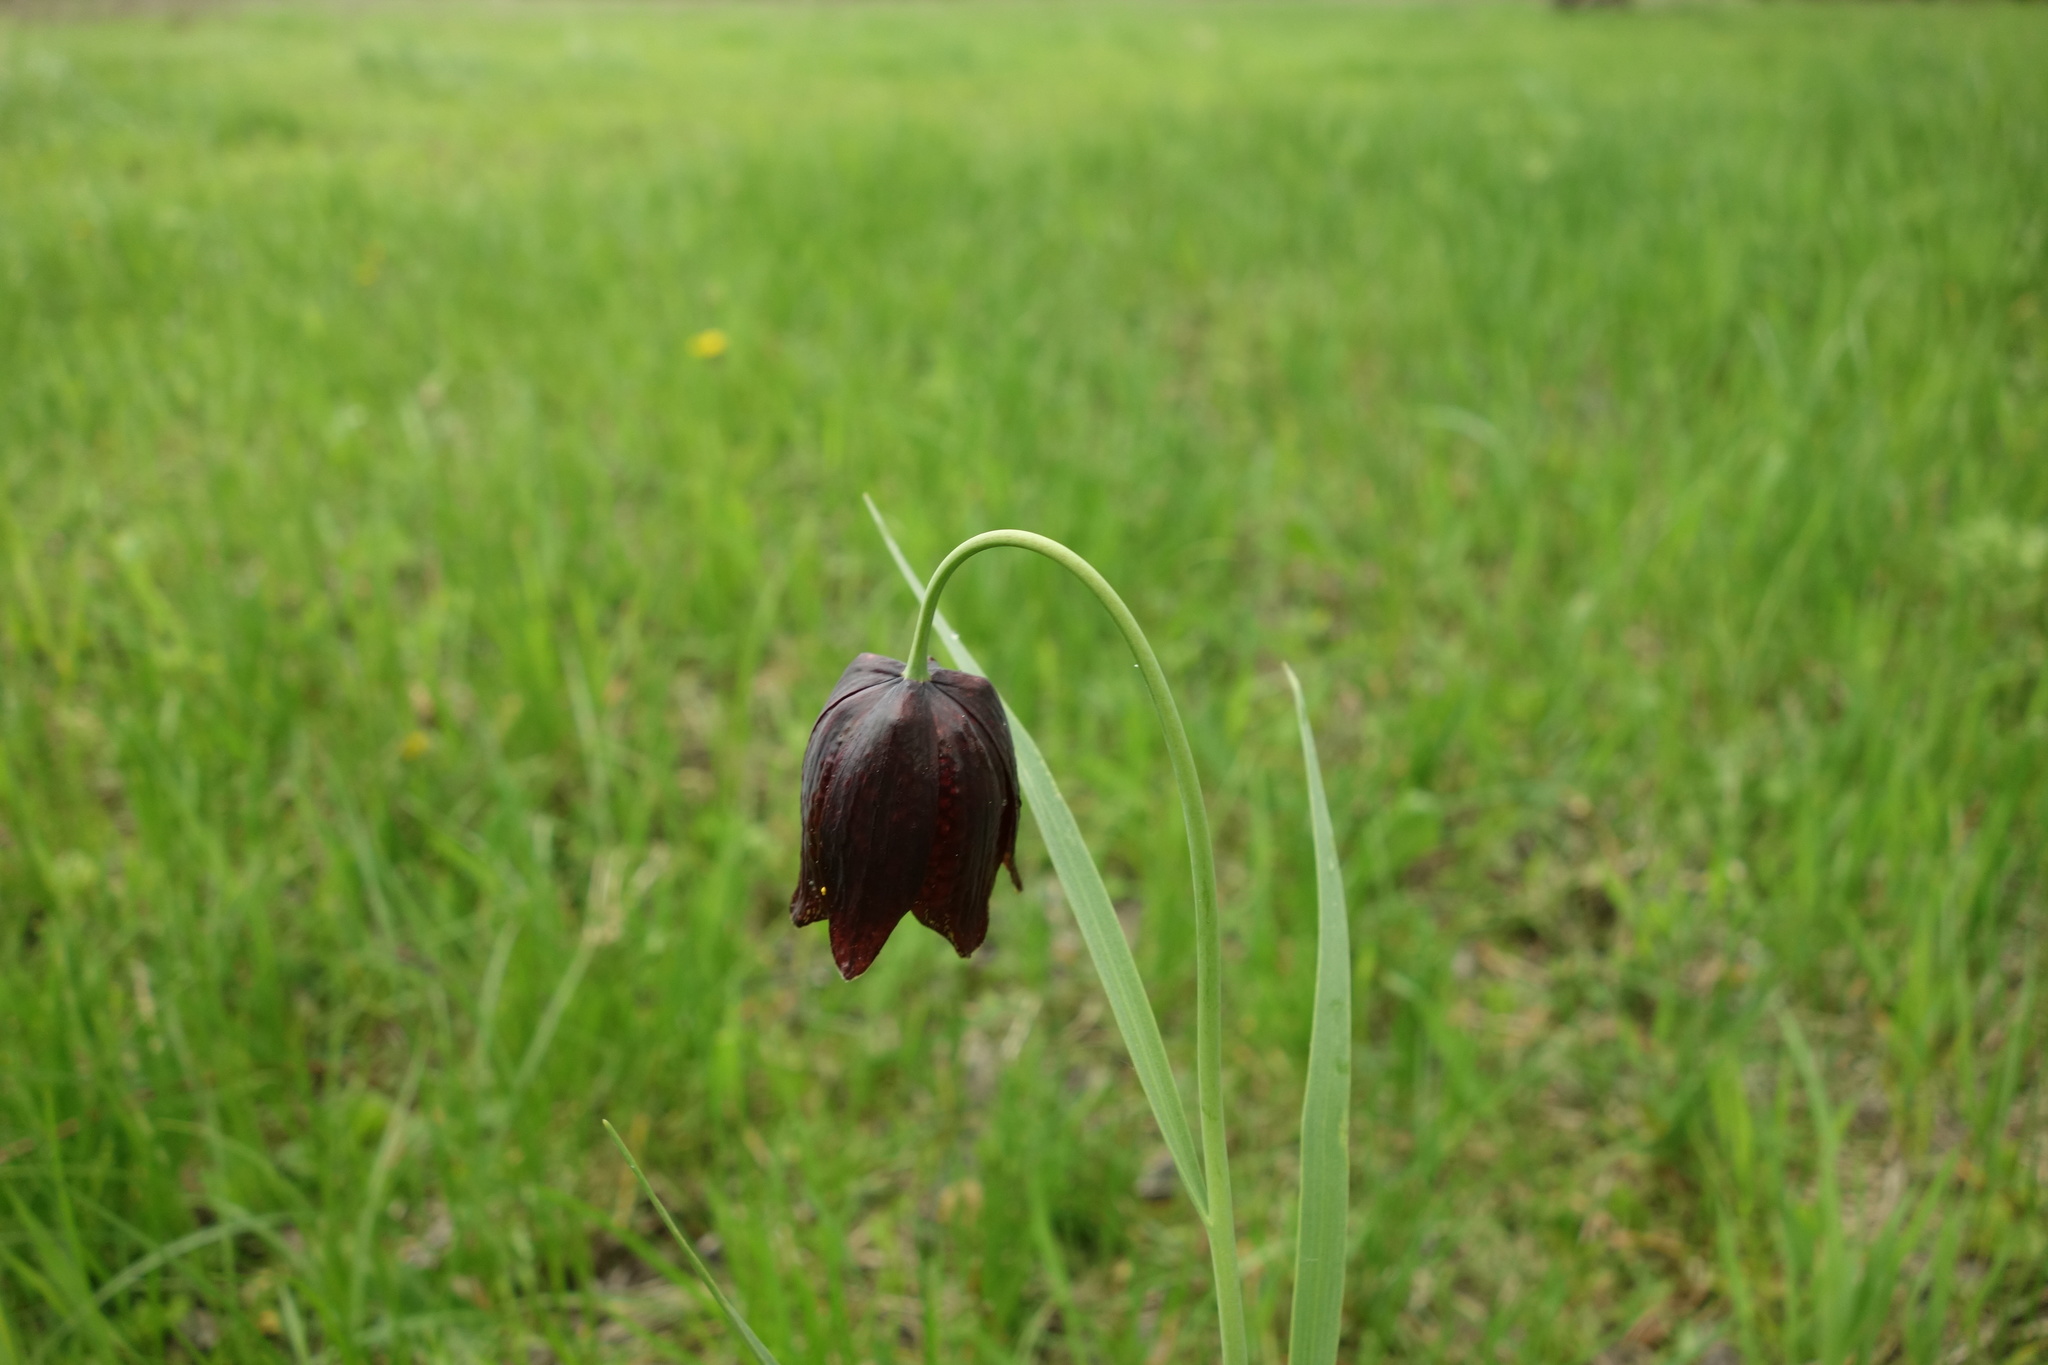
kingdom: Plantae
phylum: Tracheophyta
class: Liliopsida
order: Liliales
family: Liliaceae
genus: Fritillaria
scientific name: Fritillaria meleagroides
